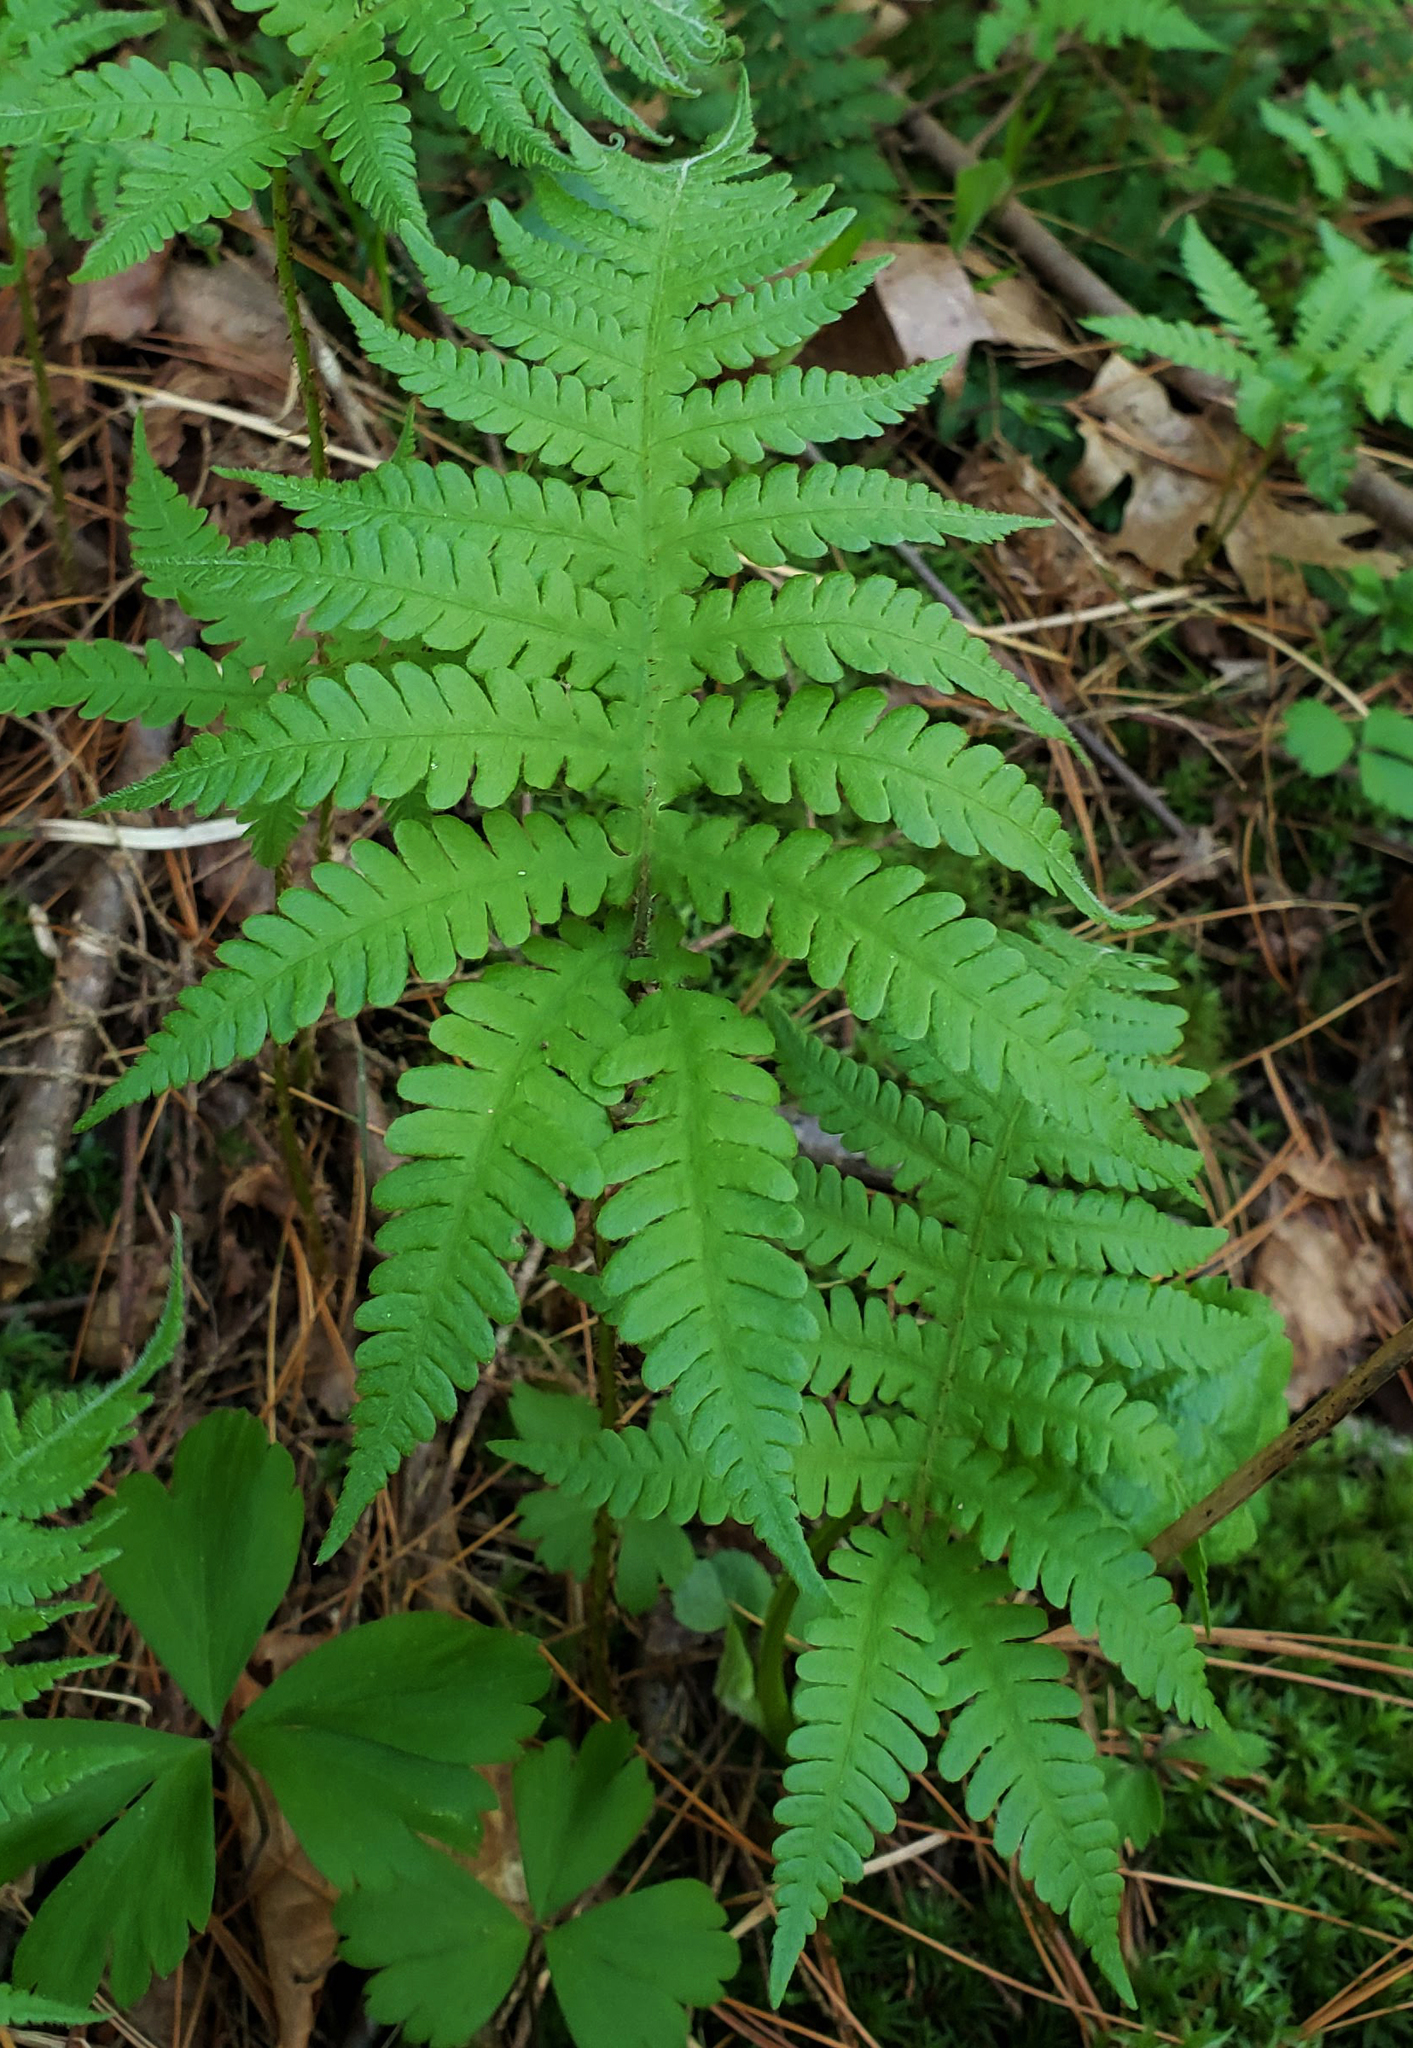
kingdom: Plantae
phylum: Tracheophyta
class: Polypodiopsida
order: Polypodiales
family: Thelypteridaceae
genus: Phegopteris
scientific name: Phegopteris connectilis
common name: Beech fern
